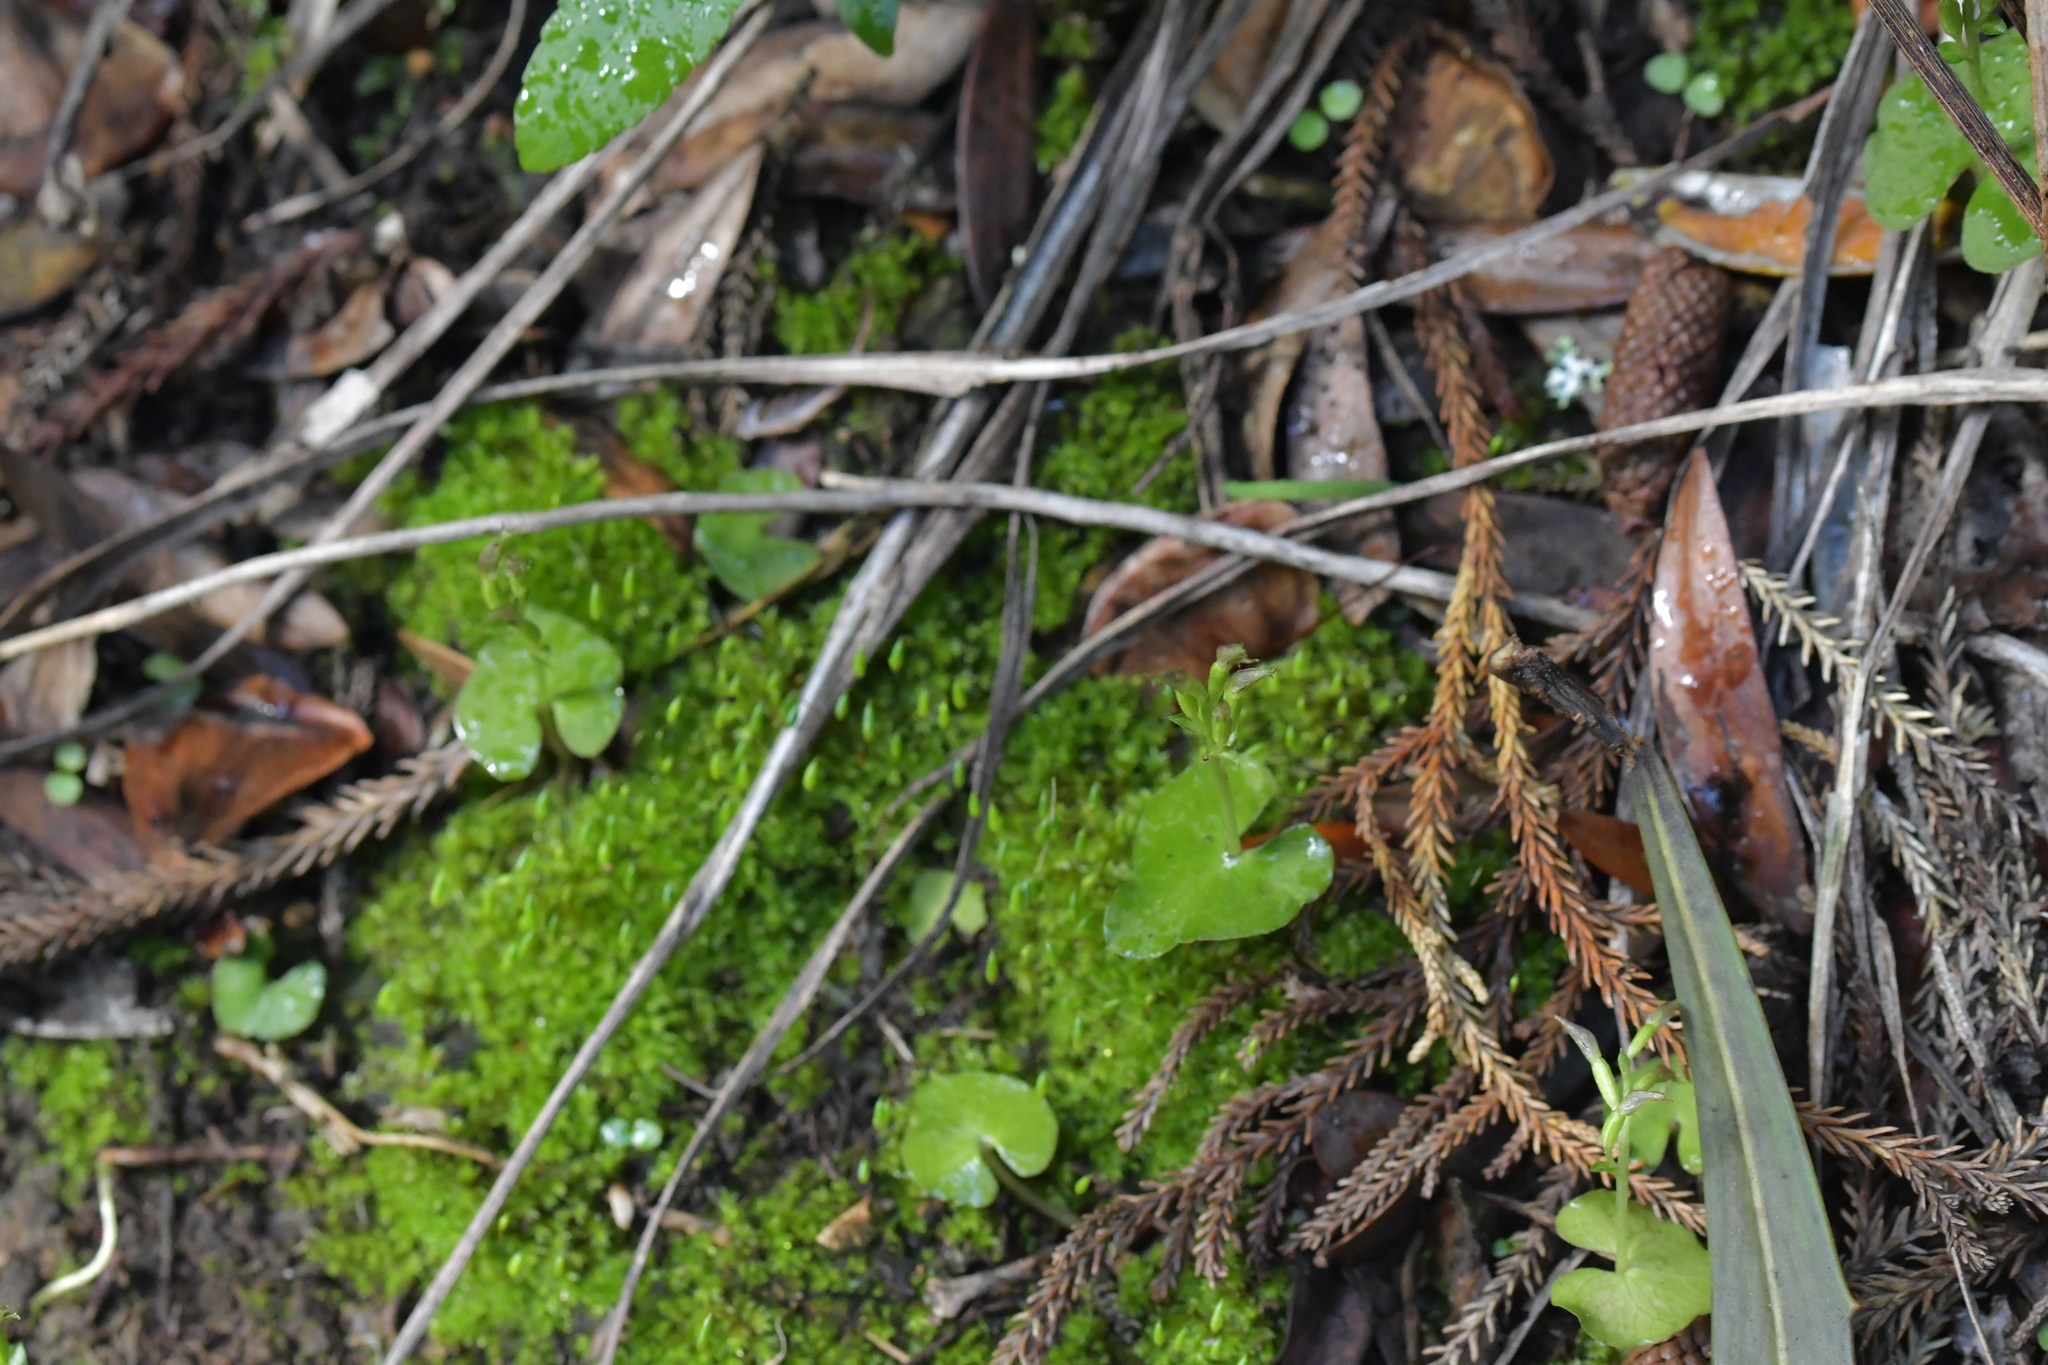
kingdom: Plantae
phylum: Tracheophyta
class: Liliopsida
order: Asparagales
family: Orchidaceae
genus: Acianthus
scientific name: Acianthus sinclairii
